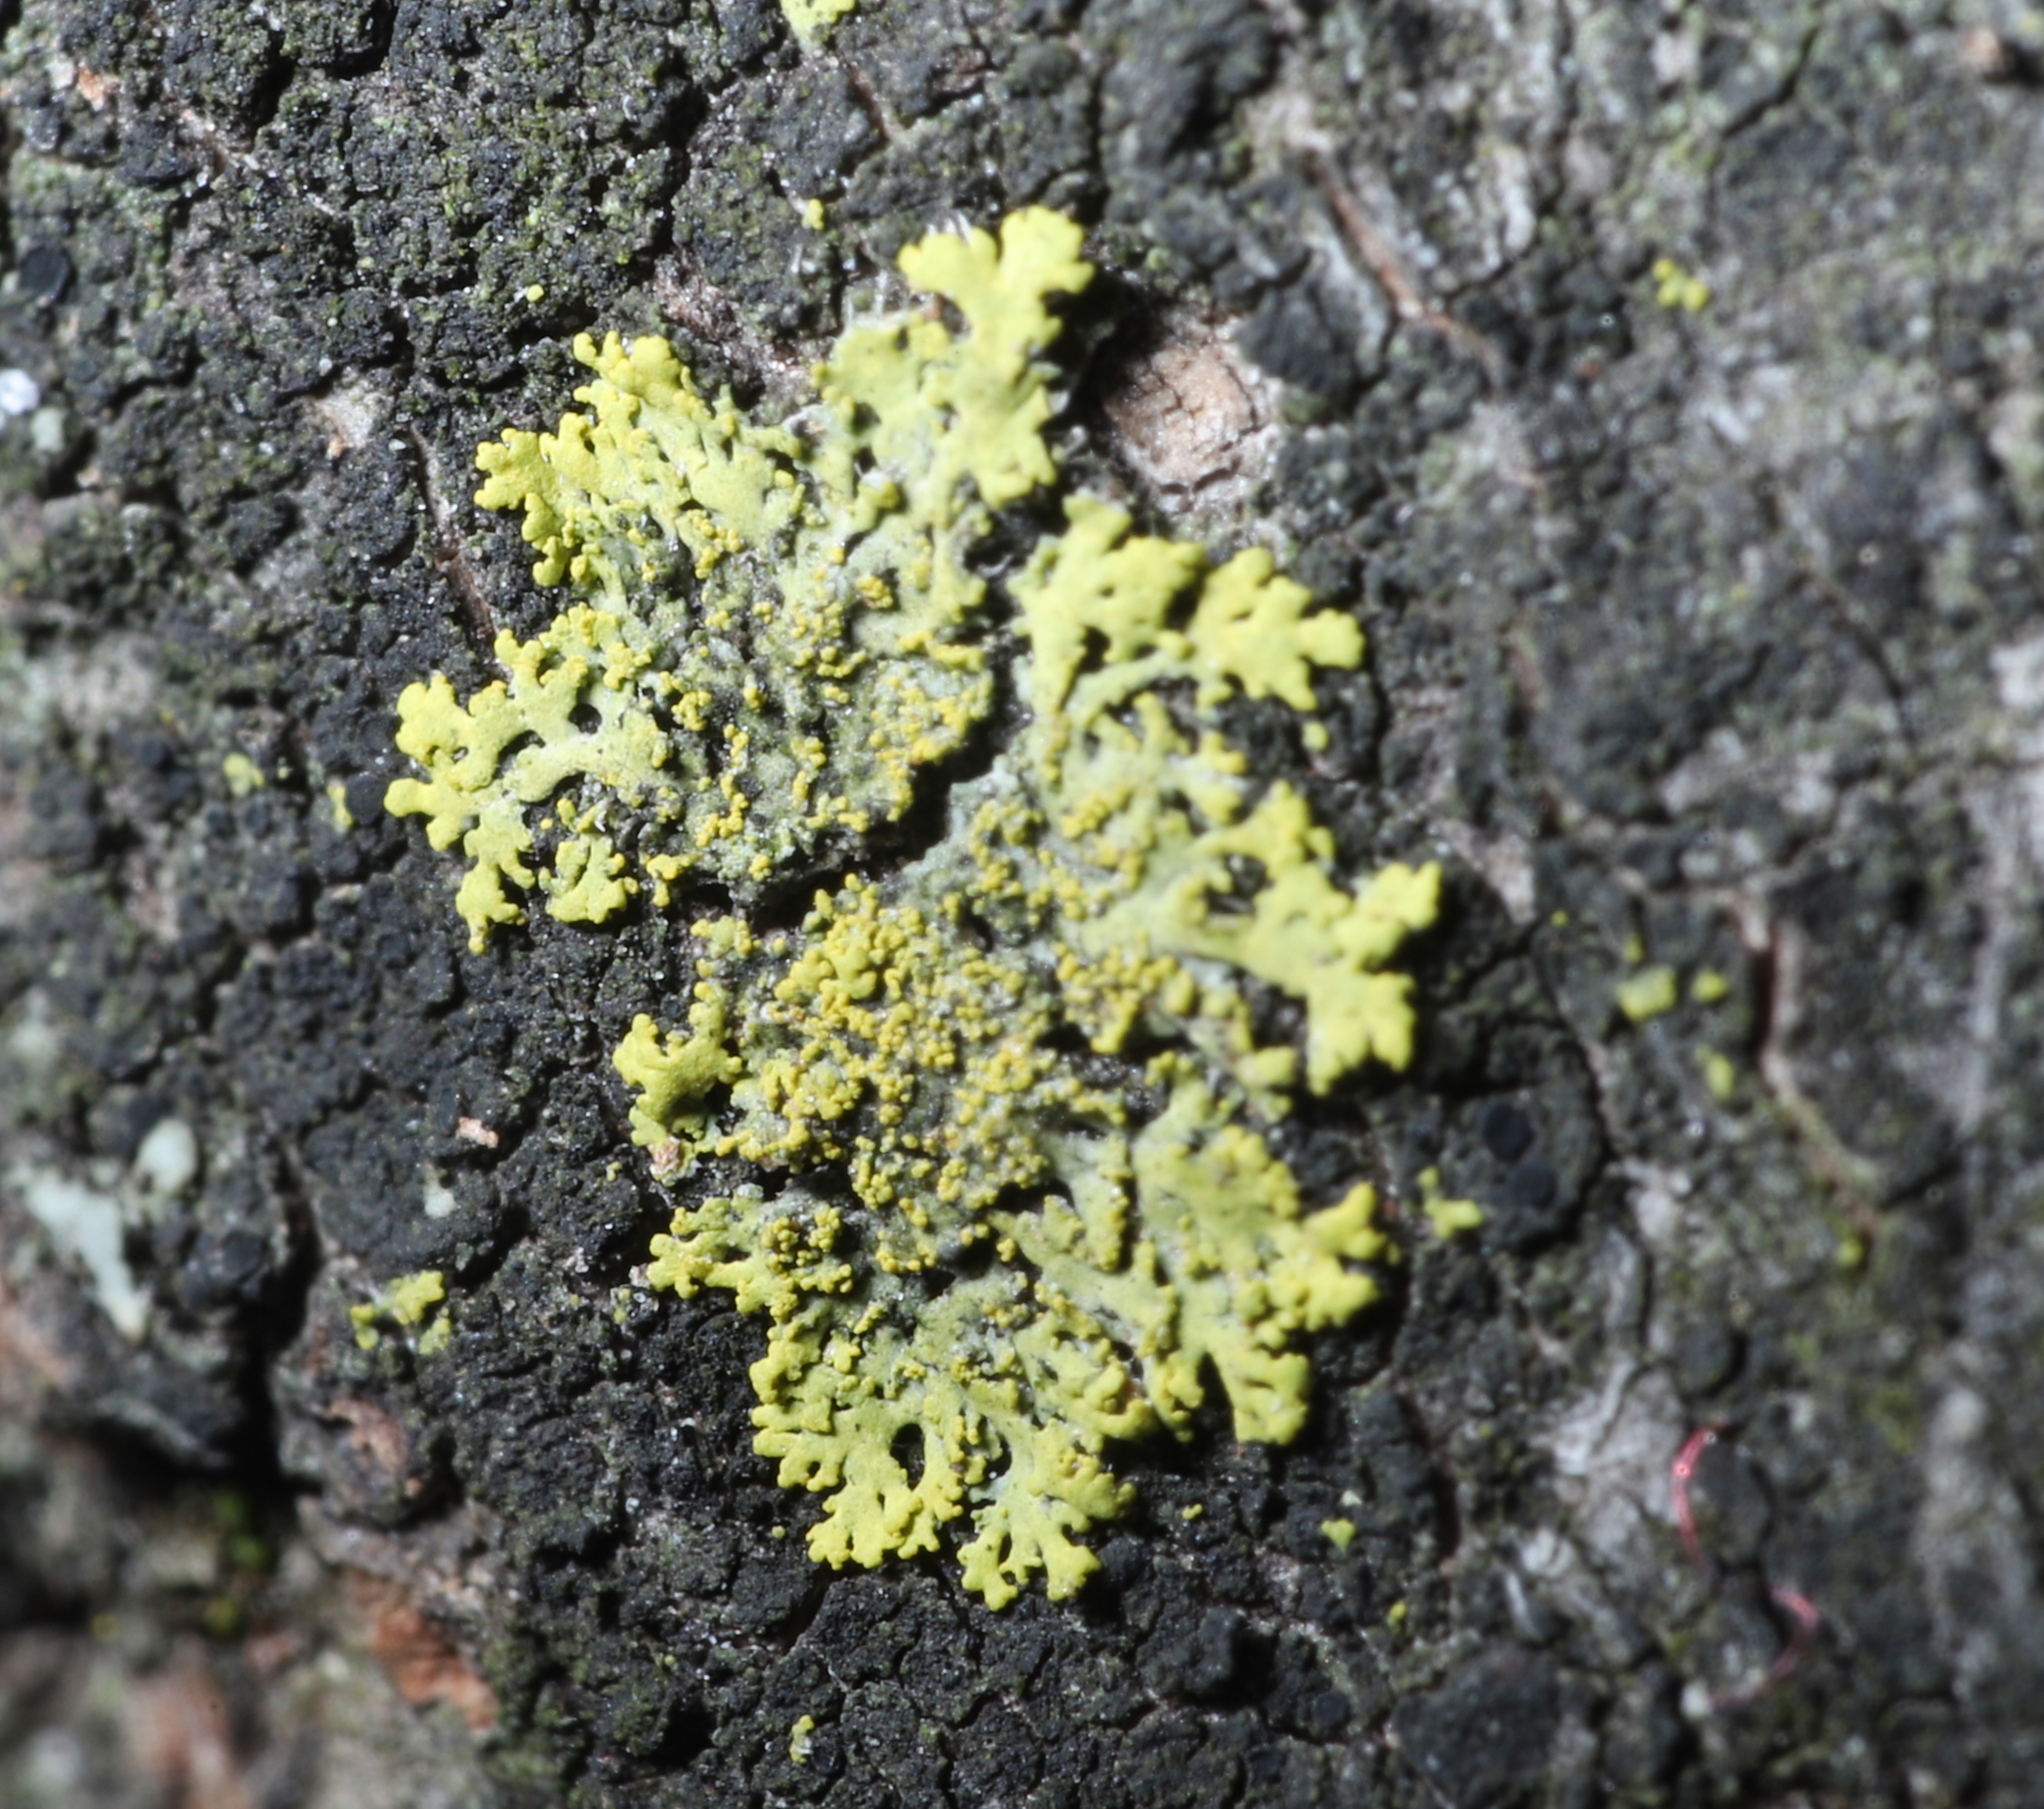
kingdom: Fungi
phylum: Ascomycota
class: Candelariomycetes
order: Candelariales
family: Candelariaceae
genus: Candelaria
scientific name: Candelaria concolor
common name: Candleflame lichen
